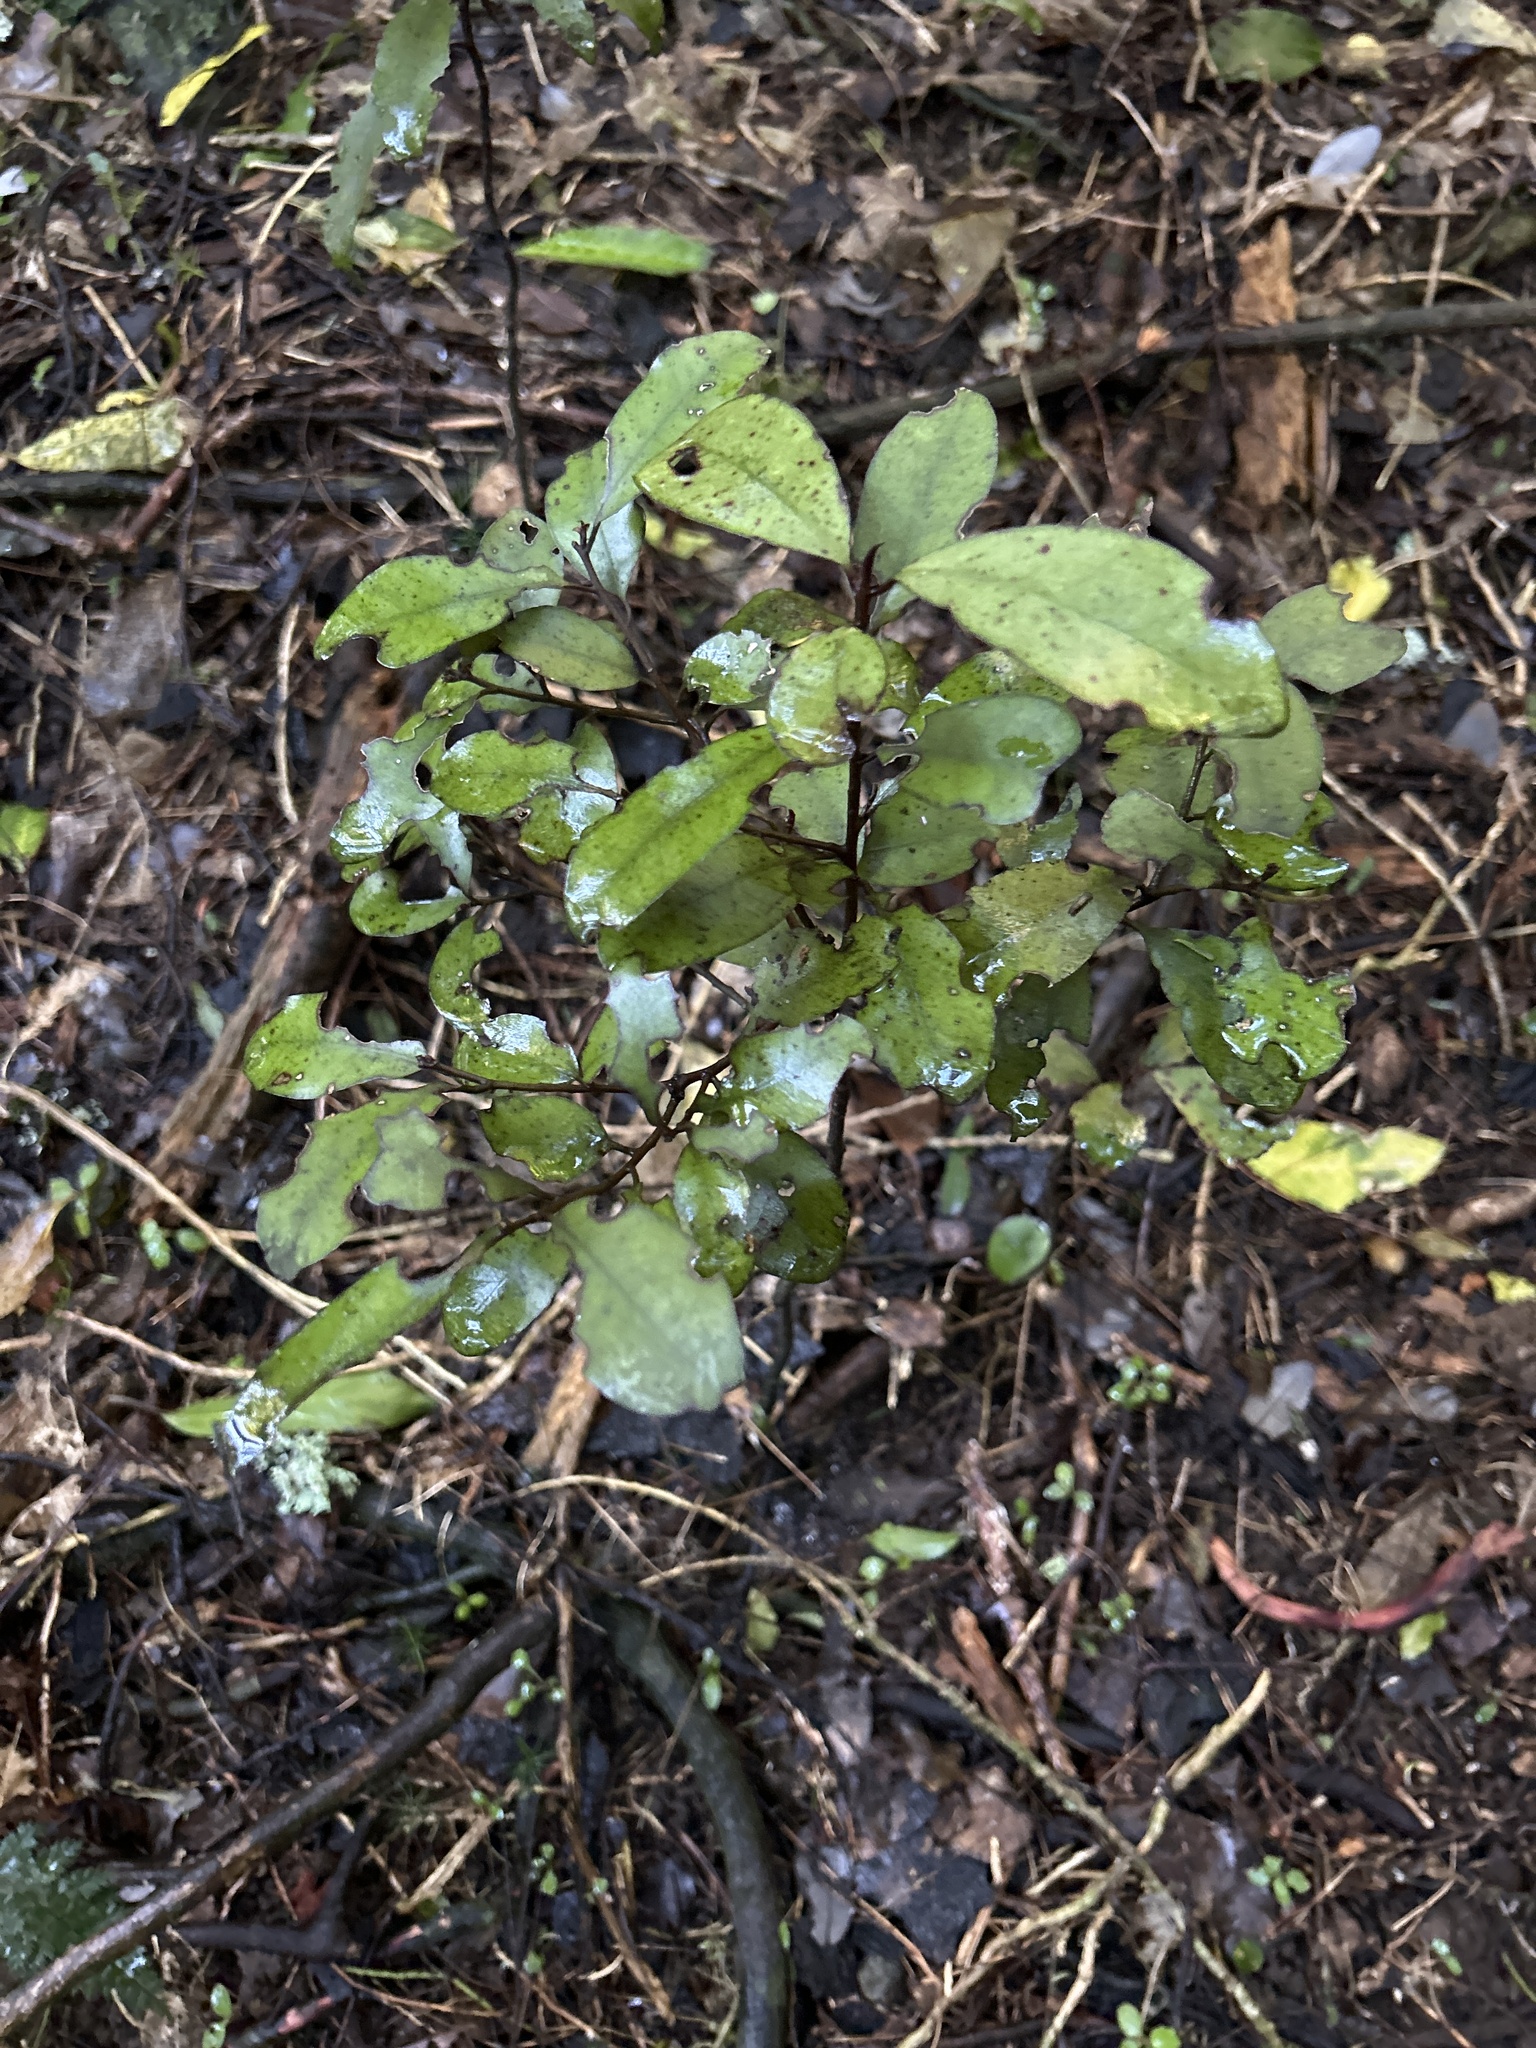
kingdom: Plantae
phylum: Tracheophyta
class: Magnoliopsida
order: Canellales
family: Winteraceae
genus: Pseudowintera
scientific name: Pseudowintera colorata
